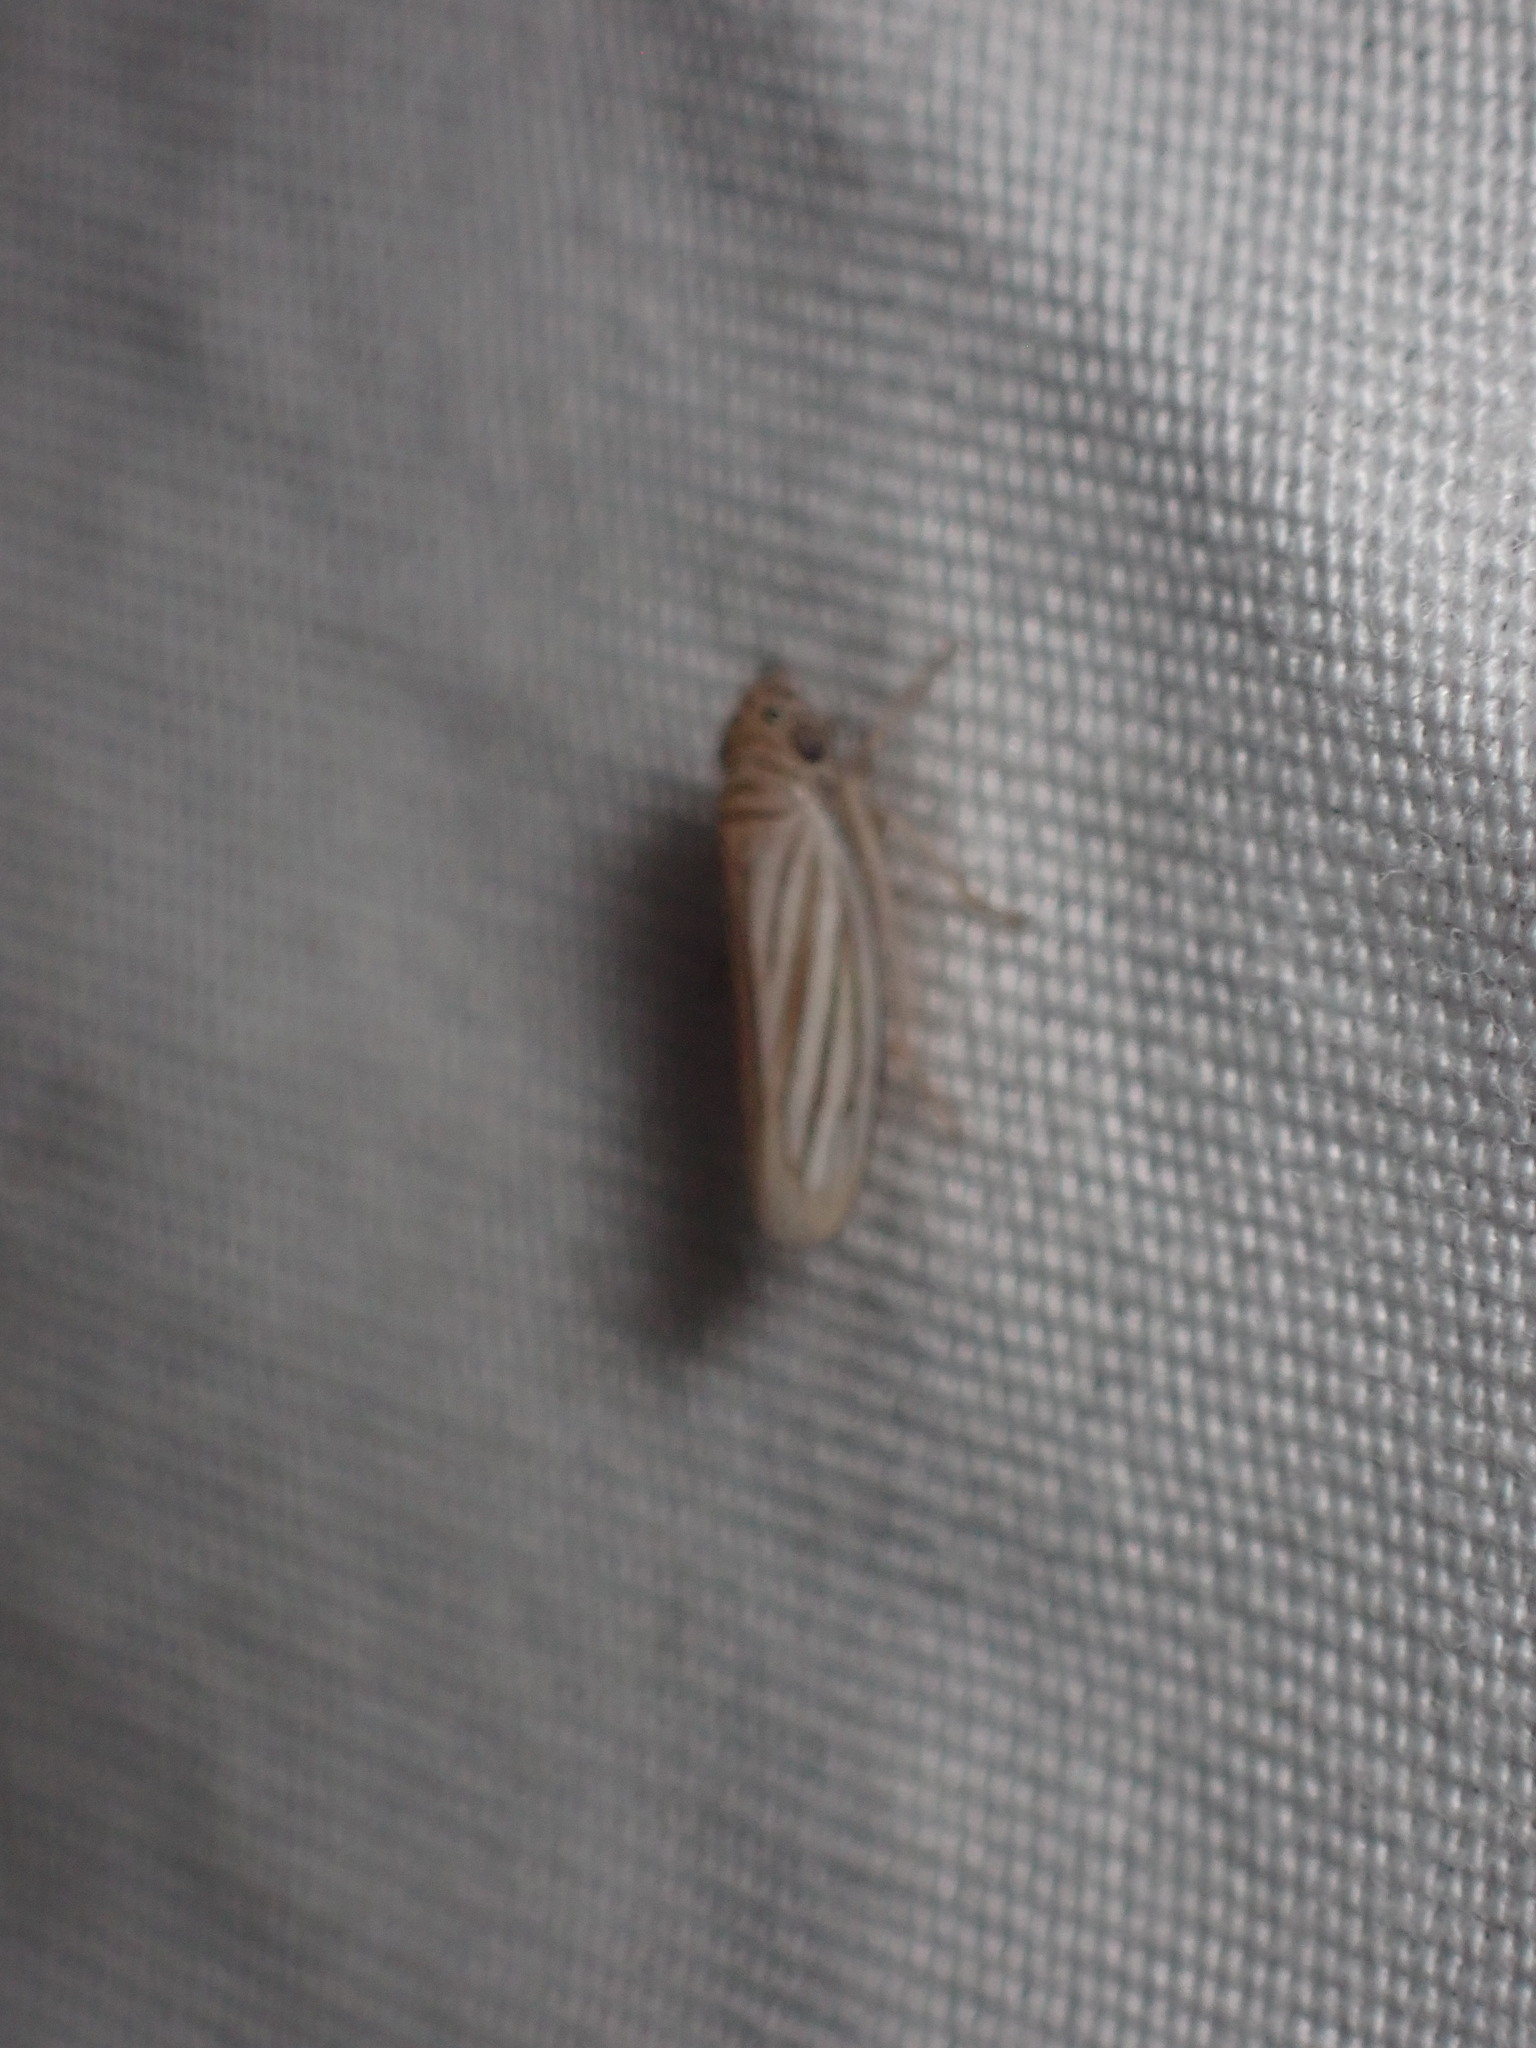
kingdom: Animalia
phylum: Arthropoda
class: Insecta
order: Hemiptera
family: Cicadellidae
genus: Provancherana
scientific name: Provancherana tripunctata
